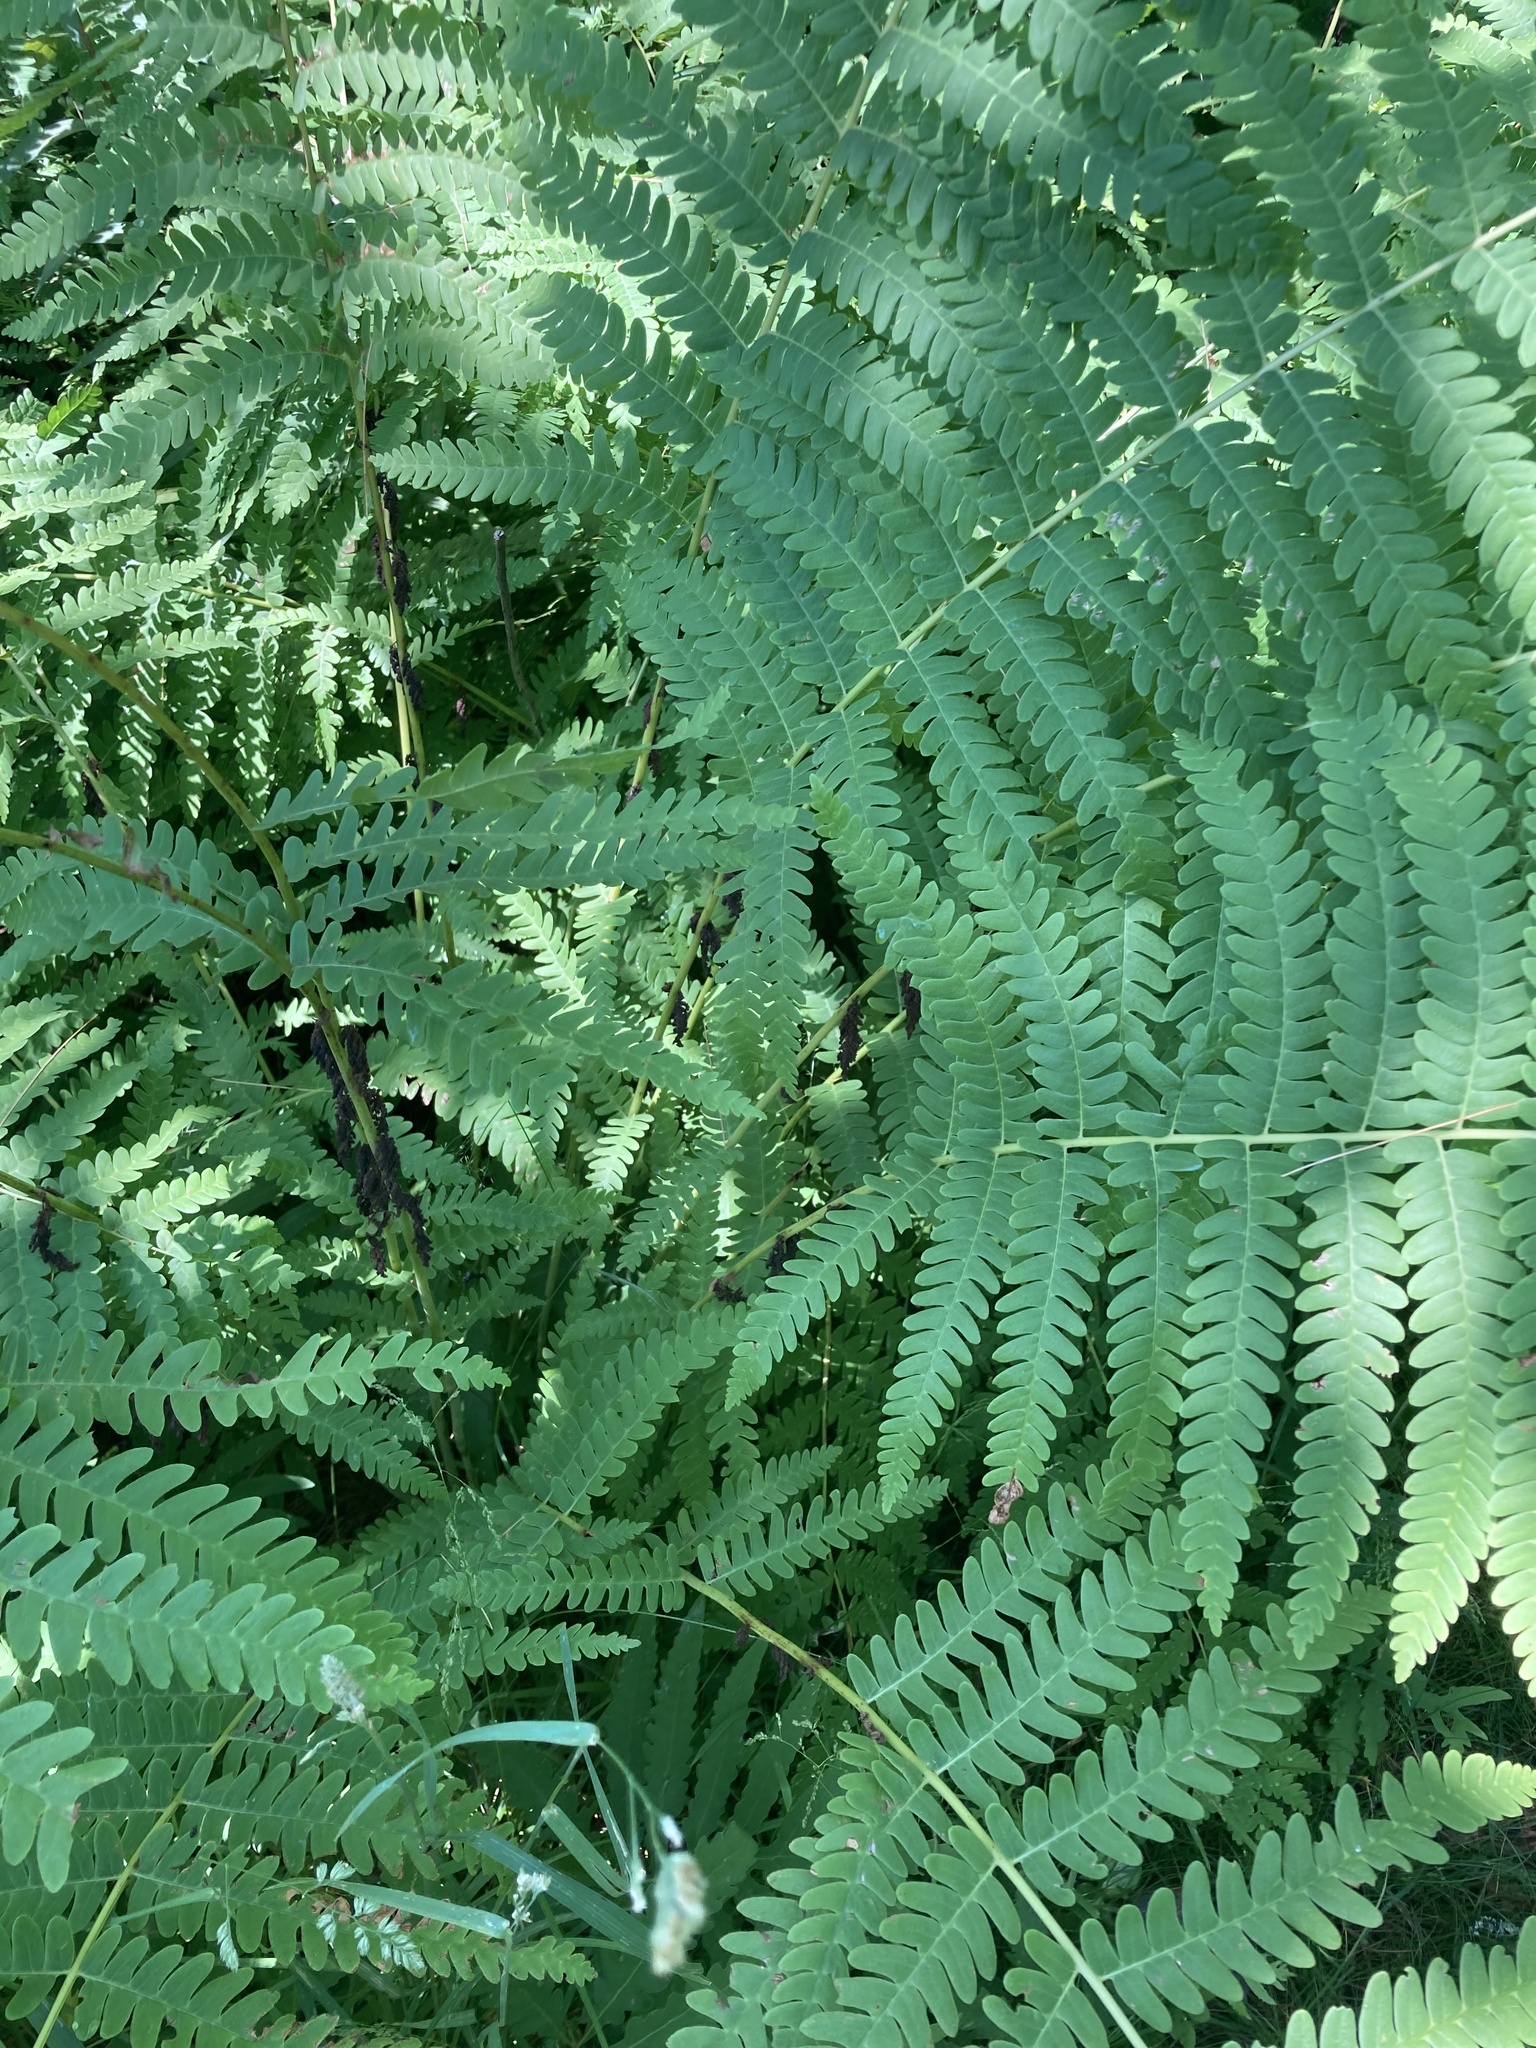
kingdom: Plantae
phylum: Tracheophyta
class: Polypodiopsida
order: Osmundales
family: Osmundaceae
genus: Claytosmunda
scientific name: Claytosmunda claytoniana
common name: Clayton's fern
